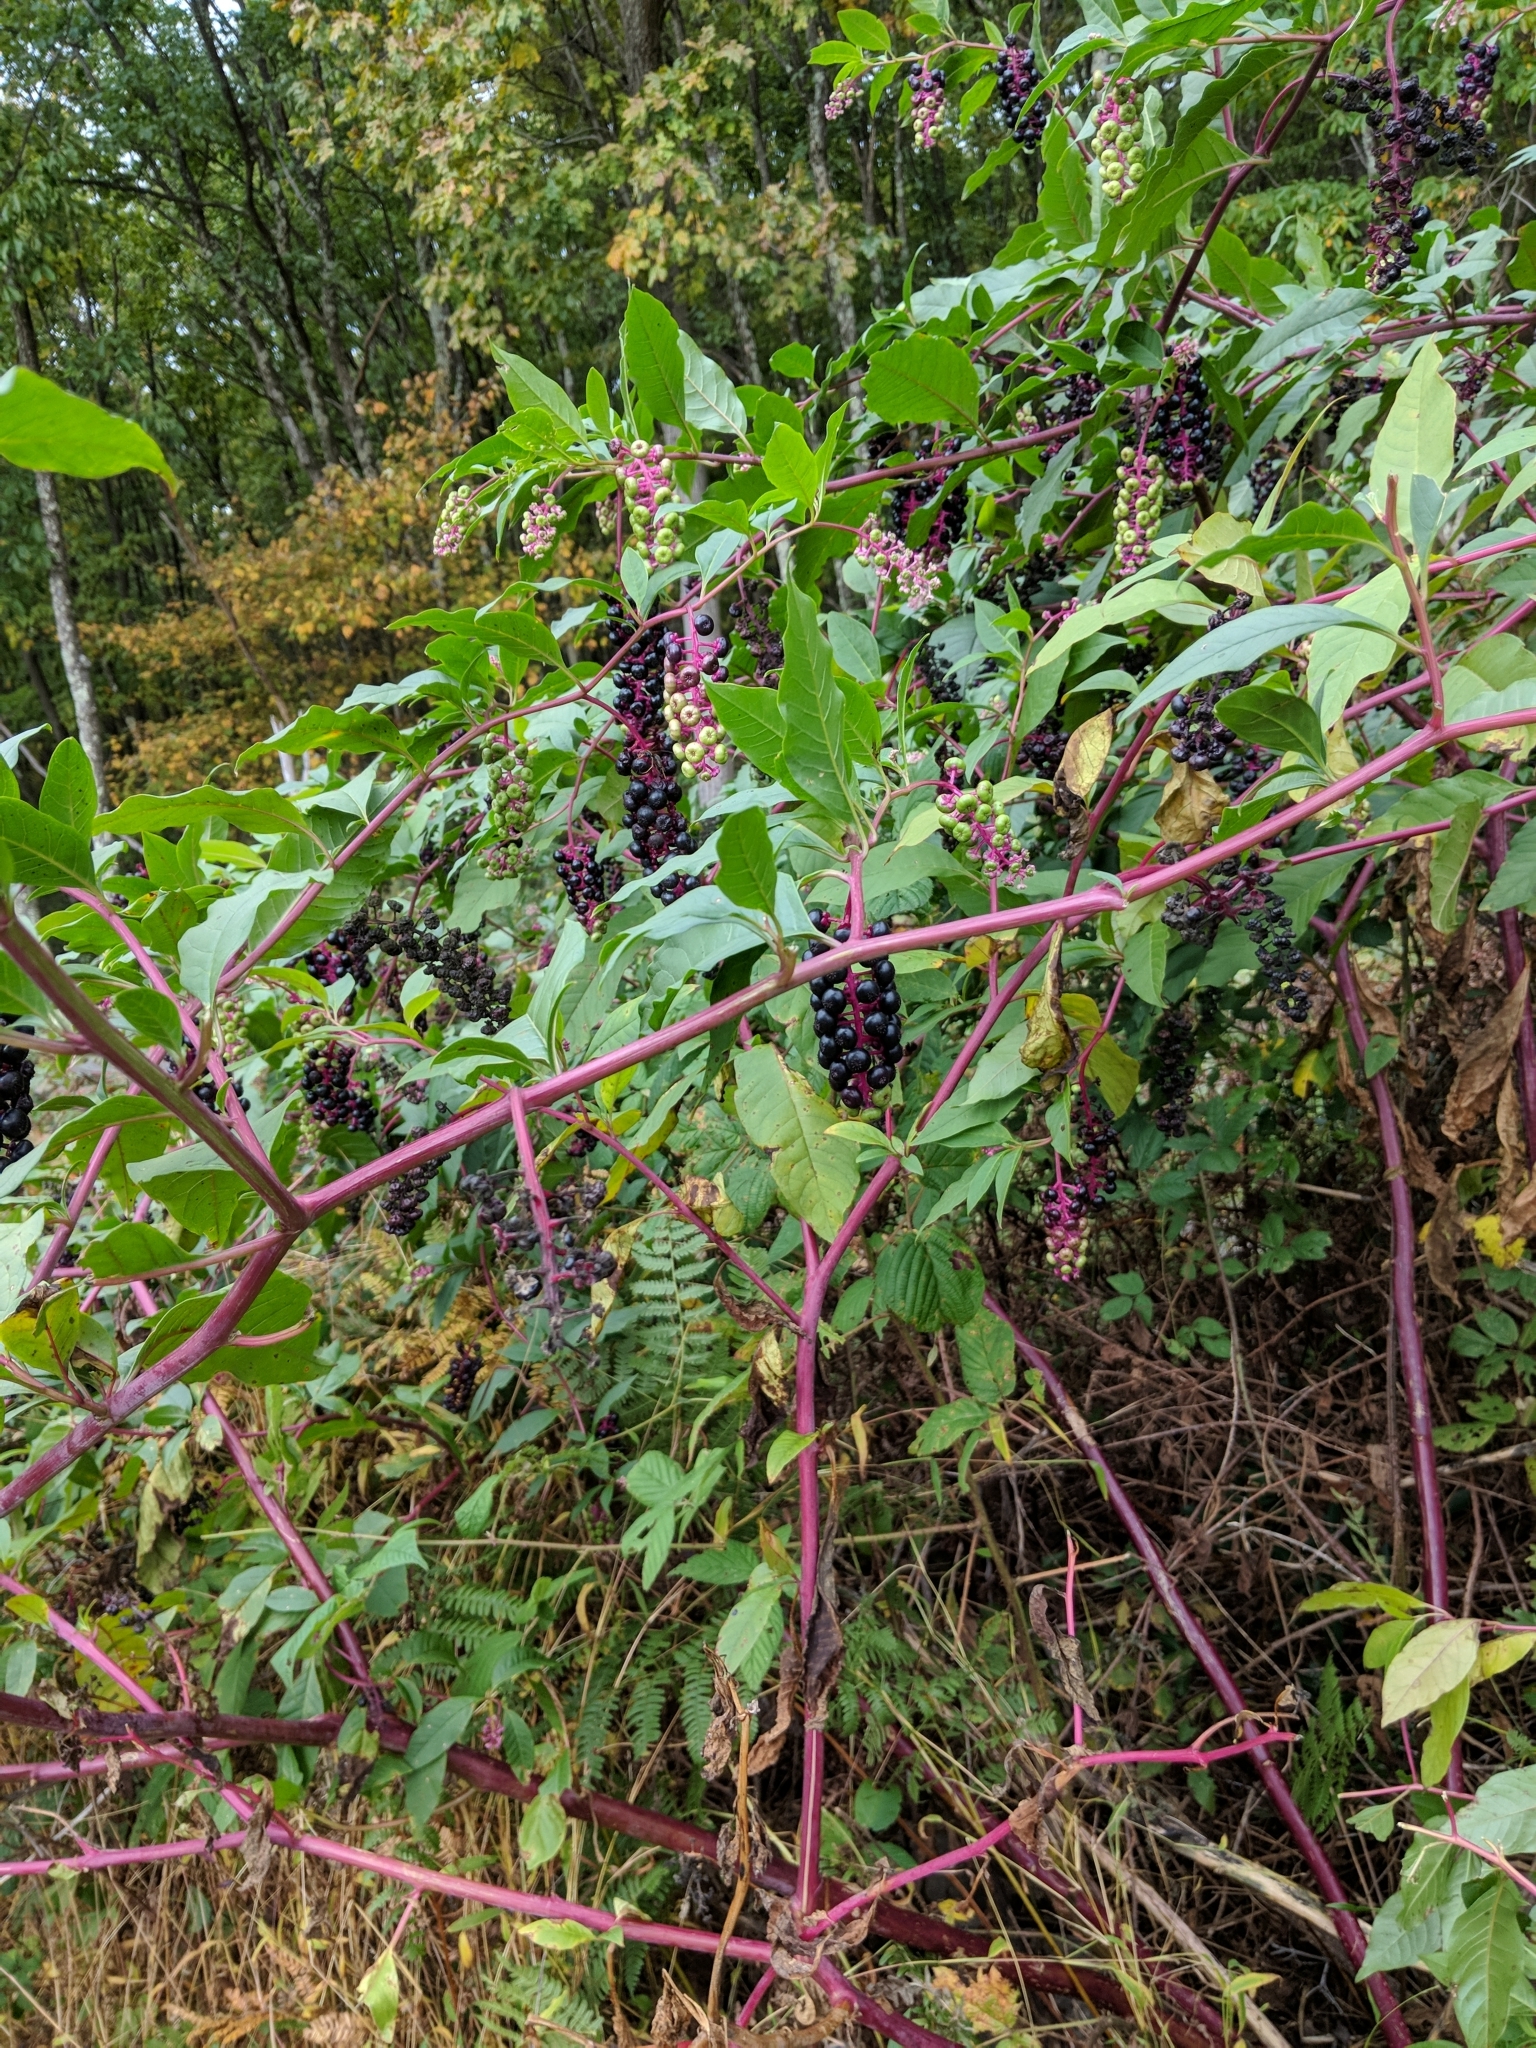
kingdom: Plantae
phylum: Tracheophyta
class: Magnoliopsida
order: Caryophyllales
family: Phytolaccaceae
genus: Phytolacca
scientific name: Phytolacca americana
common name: American pokeweed
